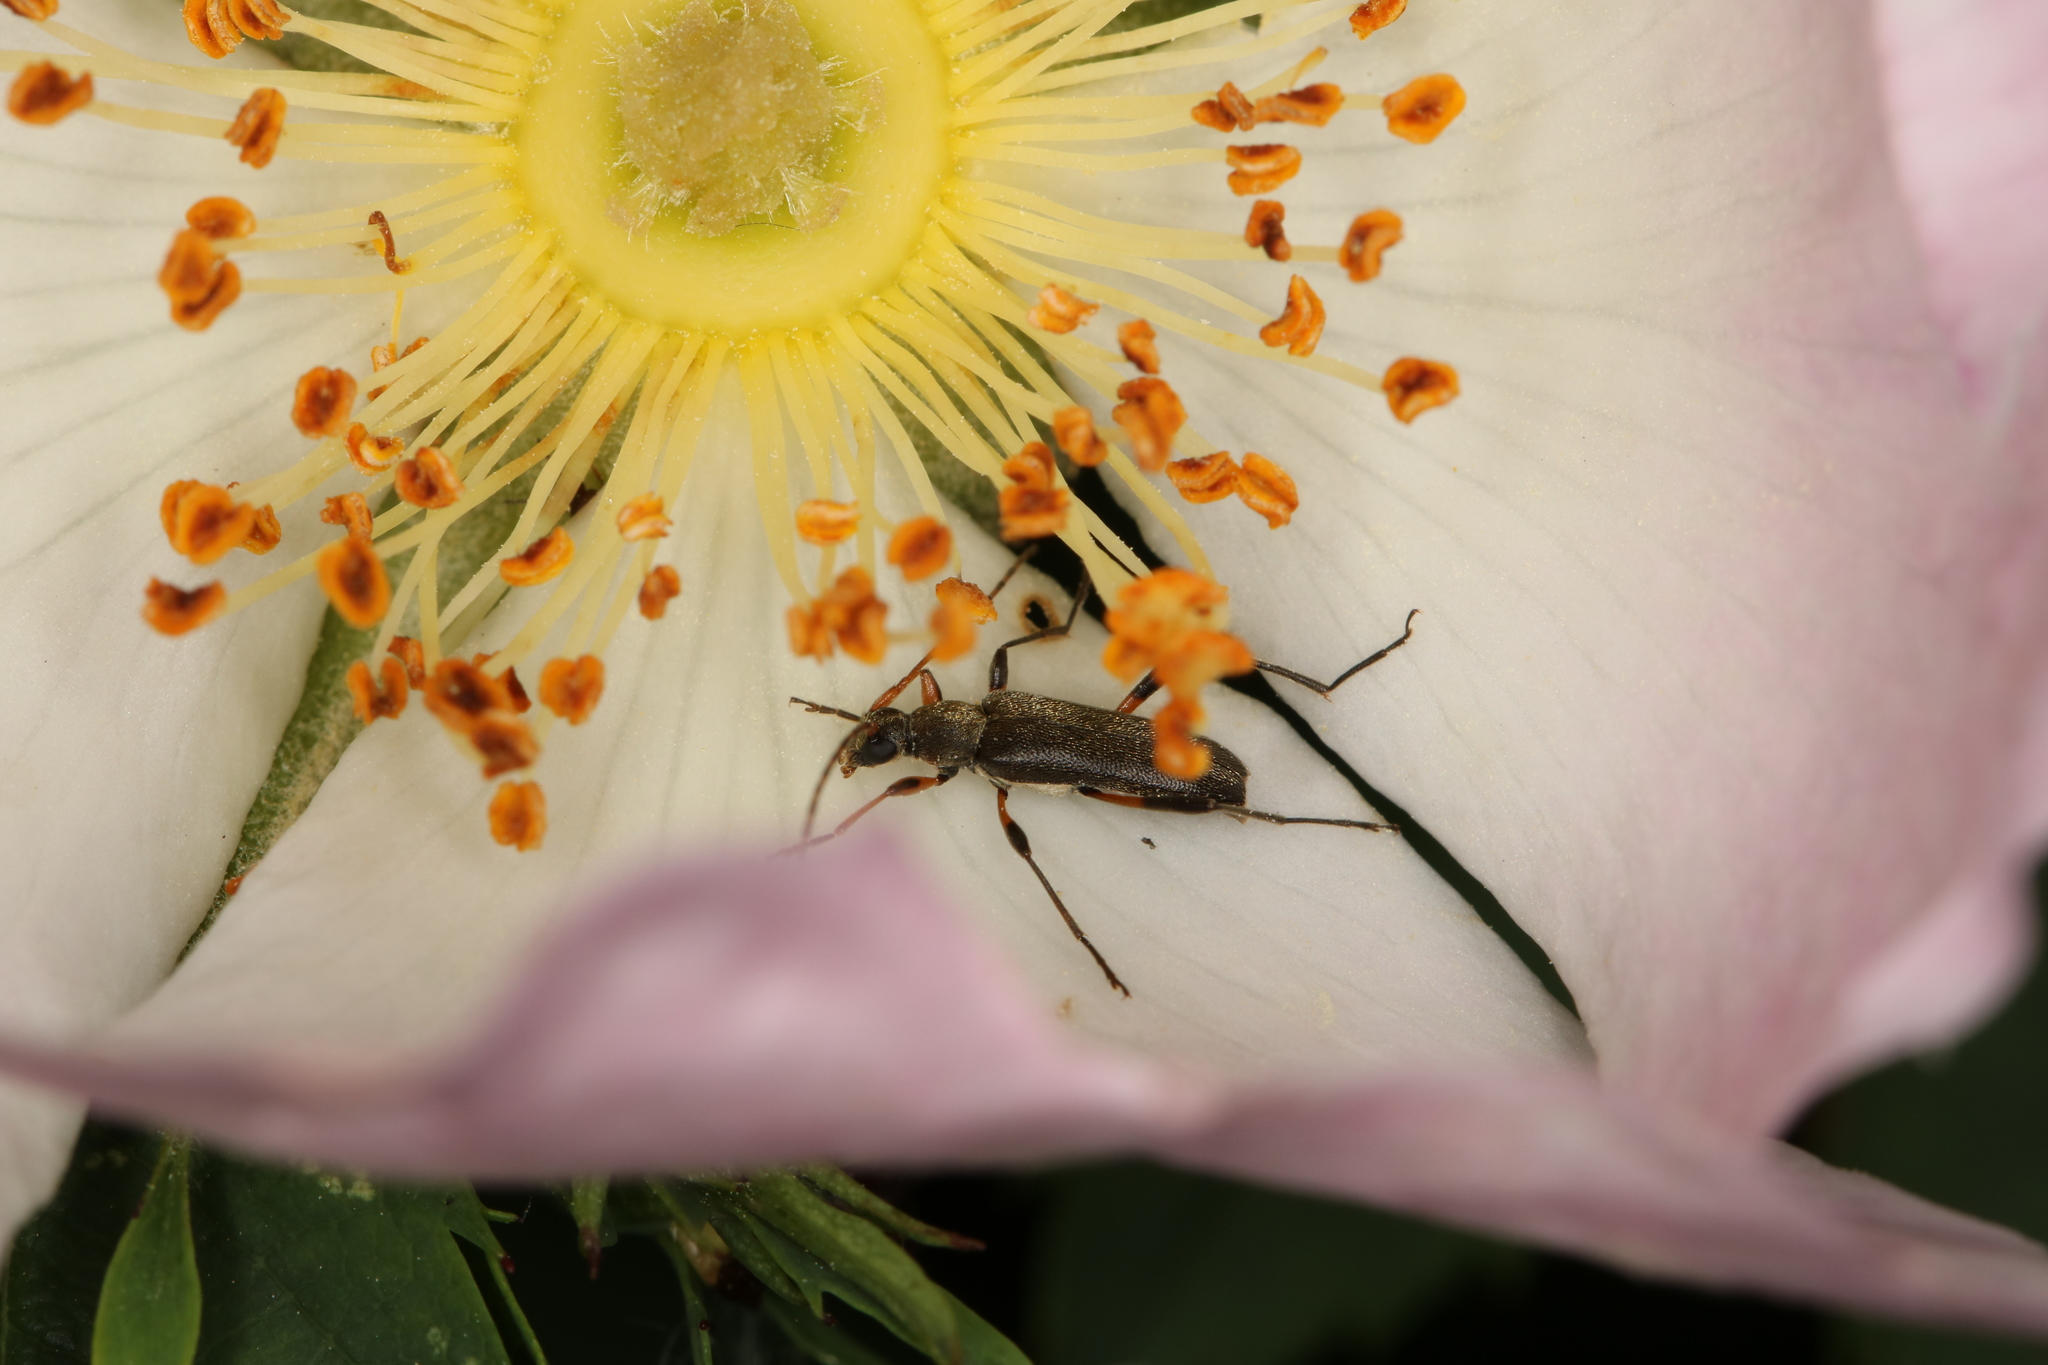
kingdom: Animalia
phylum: Arthropoda
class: Insecta
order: Coleoptera
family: Cerambycidae
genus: Grammoptera
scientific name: Grammoptera ruficornis
